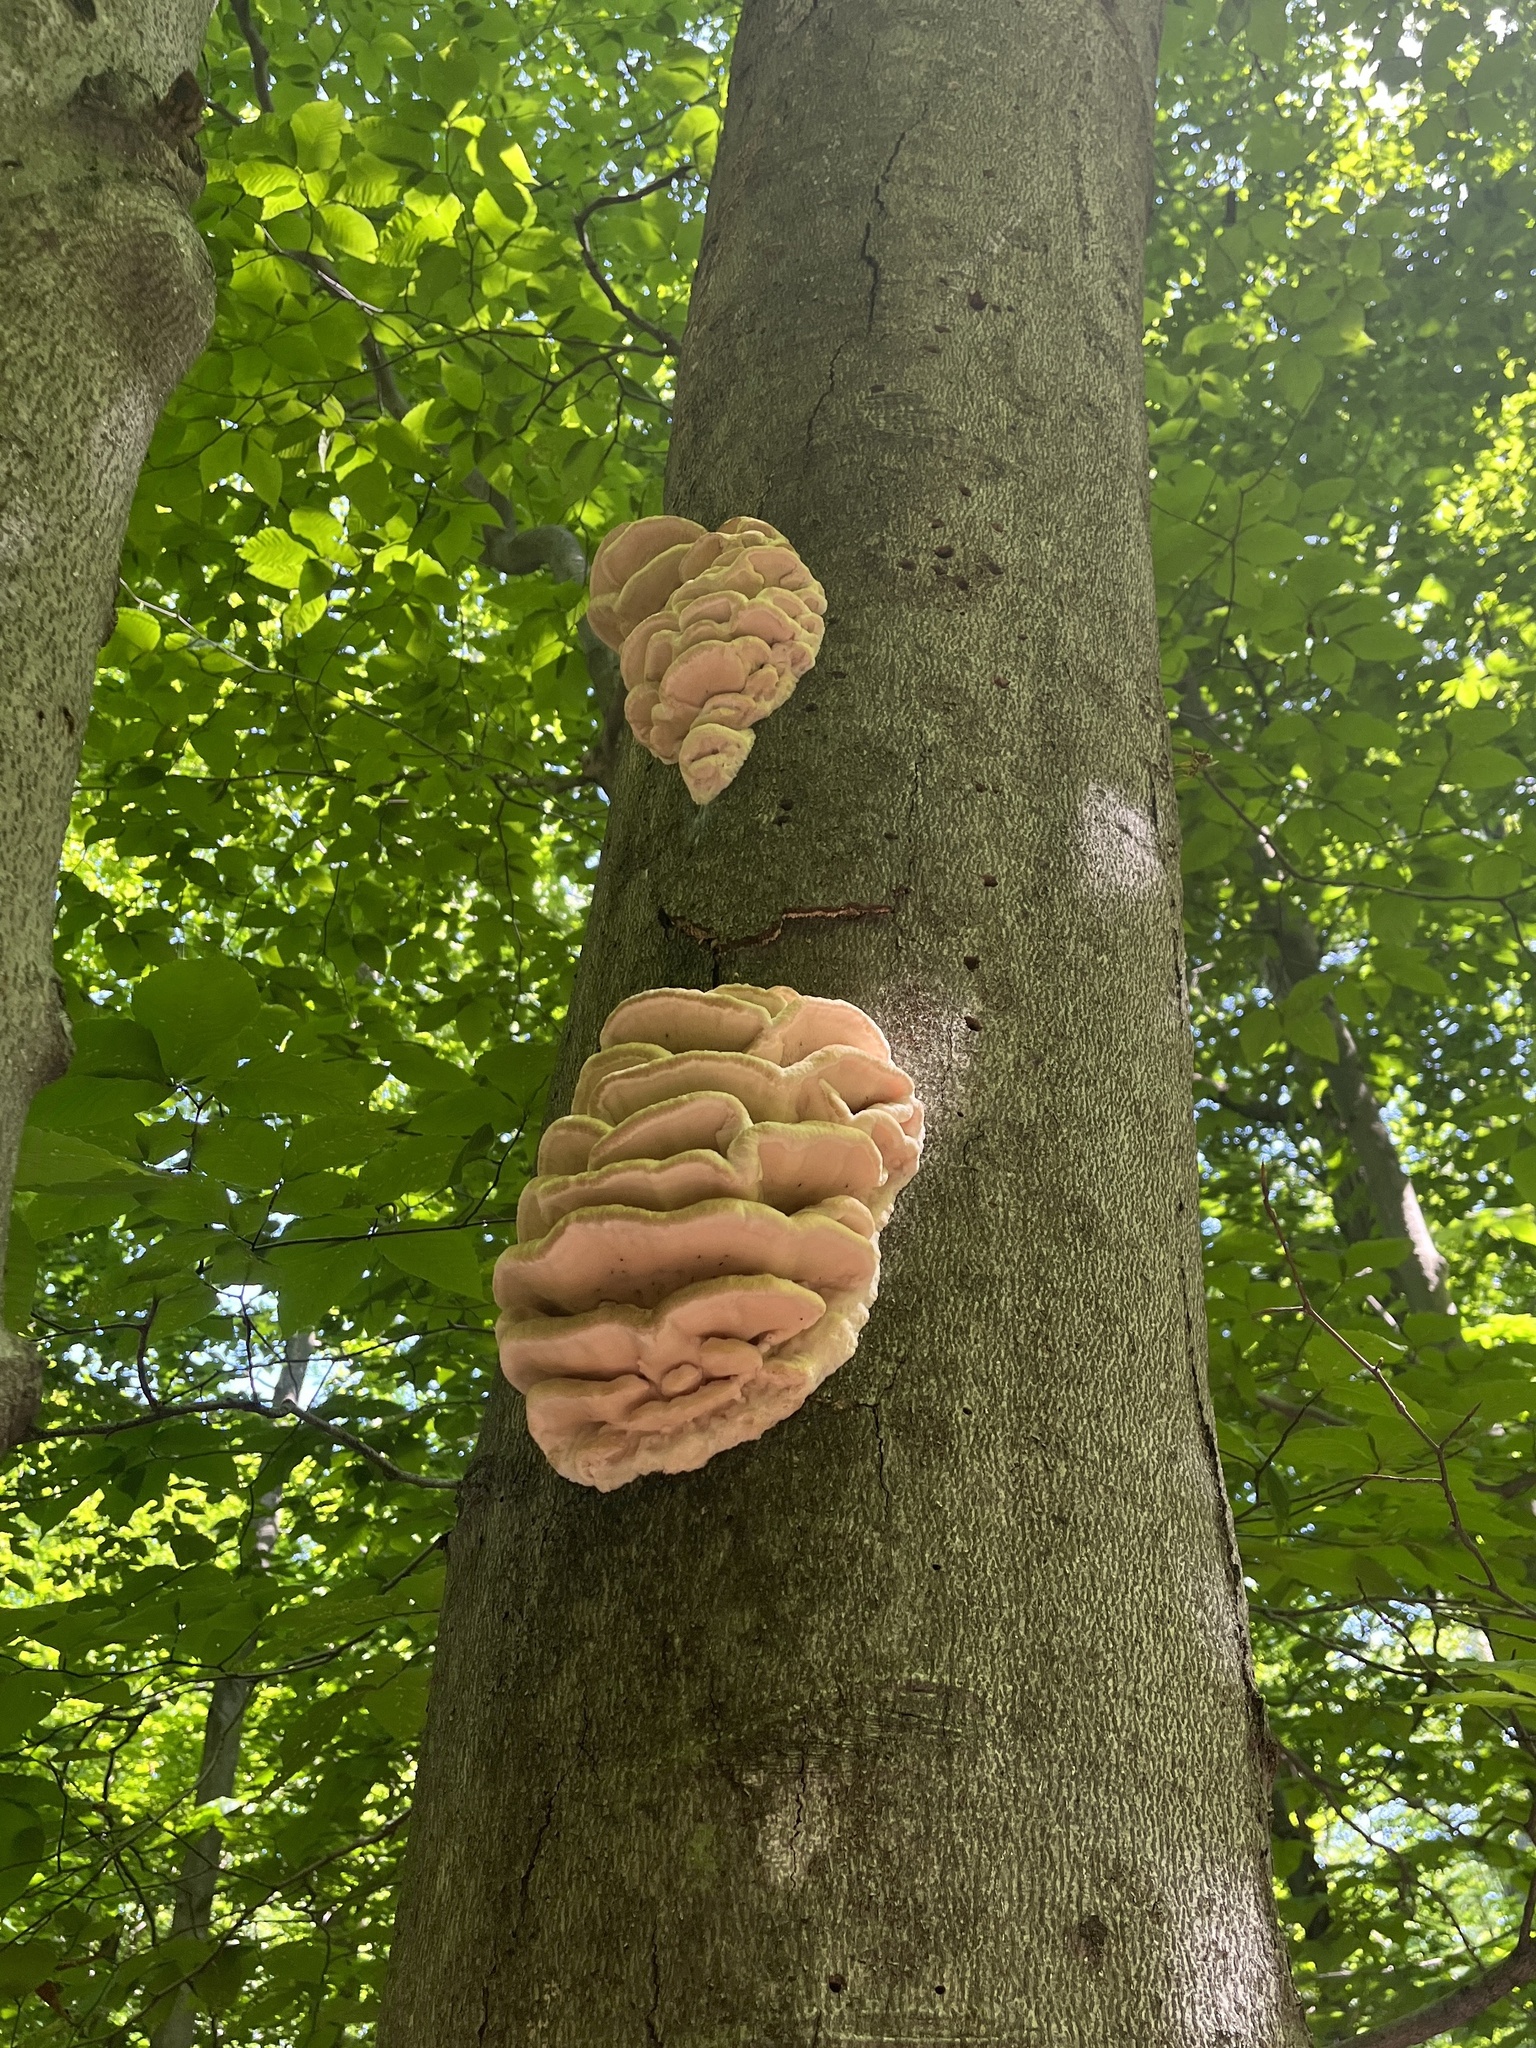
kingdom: Fungi
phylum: Basidiomycota
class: Agaricomycetes
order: Polyporales
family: Meruliaceae
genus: Climacodon
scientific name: Climacodon septentrionalis
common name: Northern tooth
